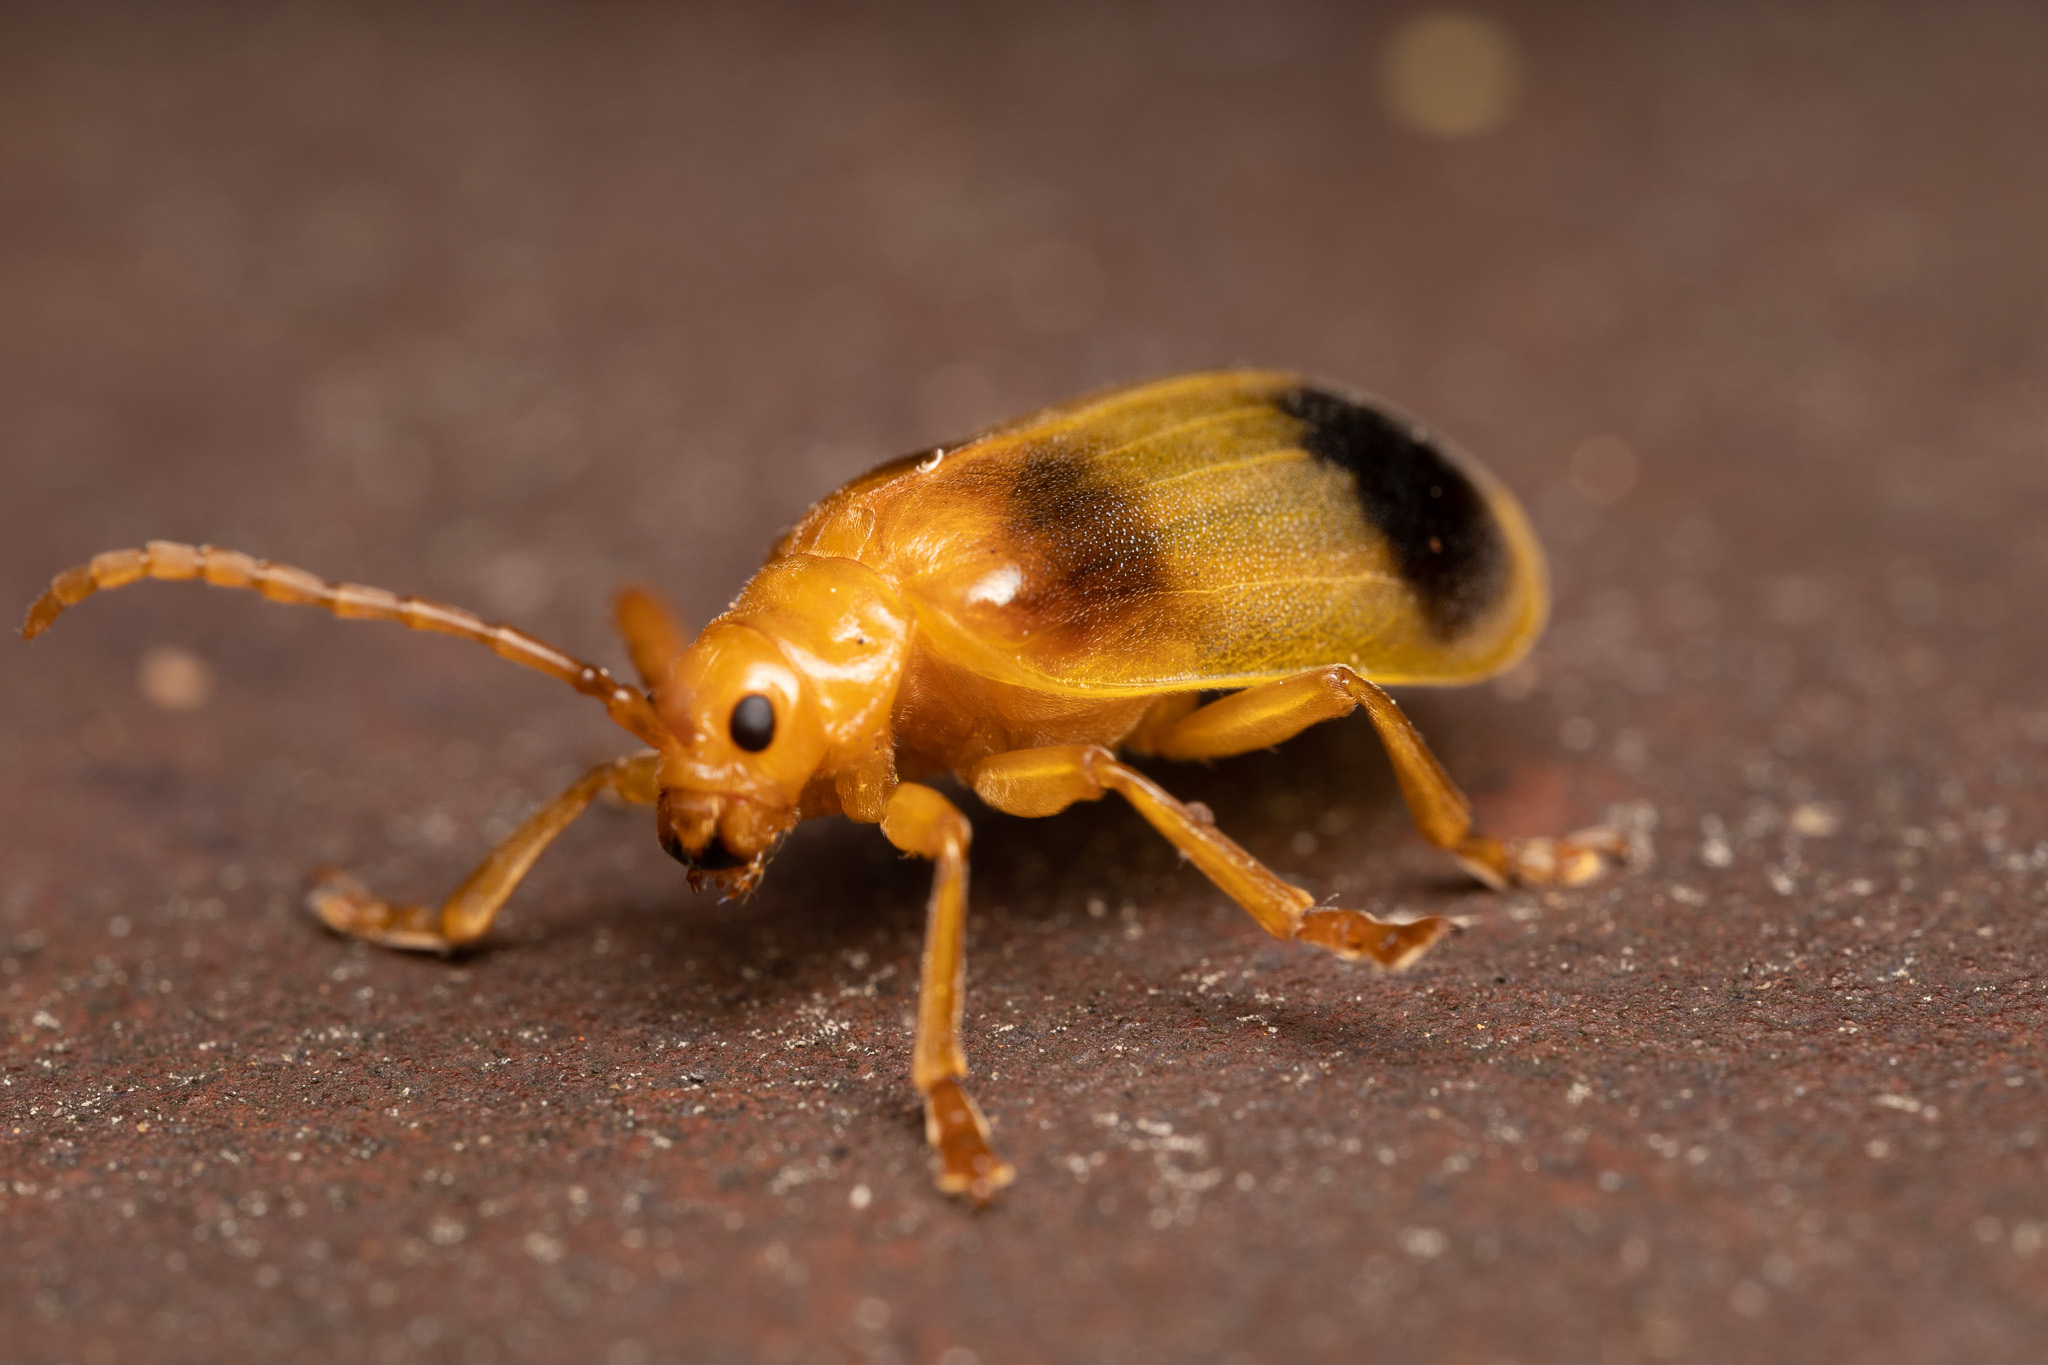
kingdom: Animalia
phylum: Arthropoda
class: Insecta
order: Coleoptera
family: Chrysomelidae
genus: Monocesta
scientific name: Monocesta coryli
